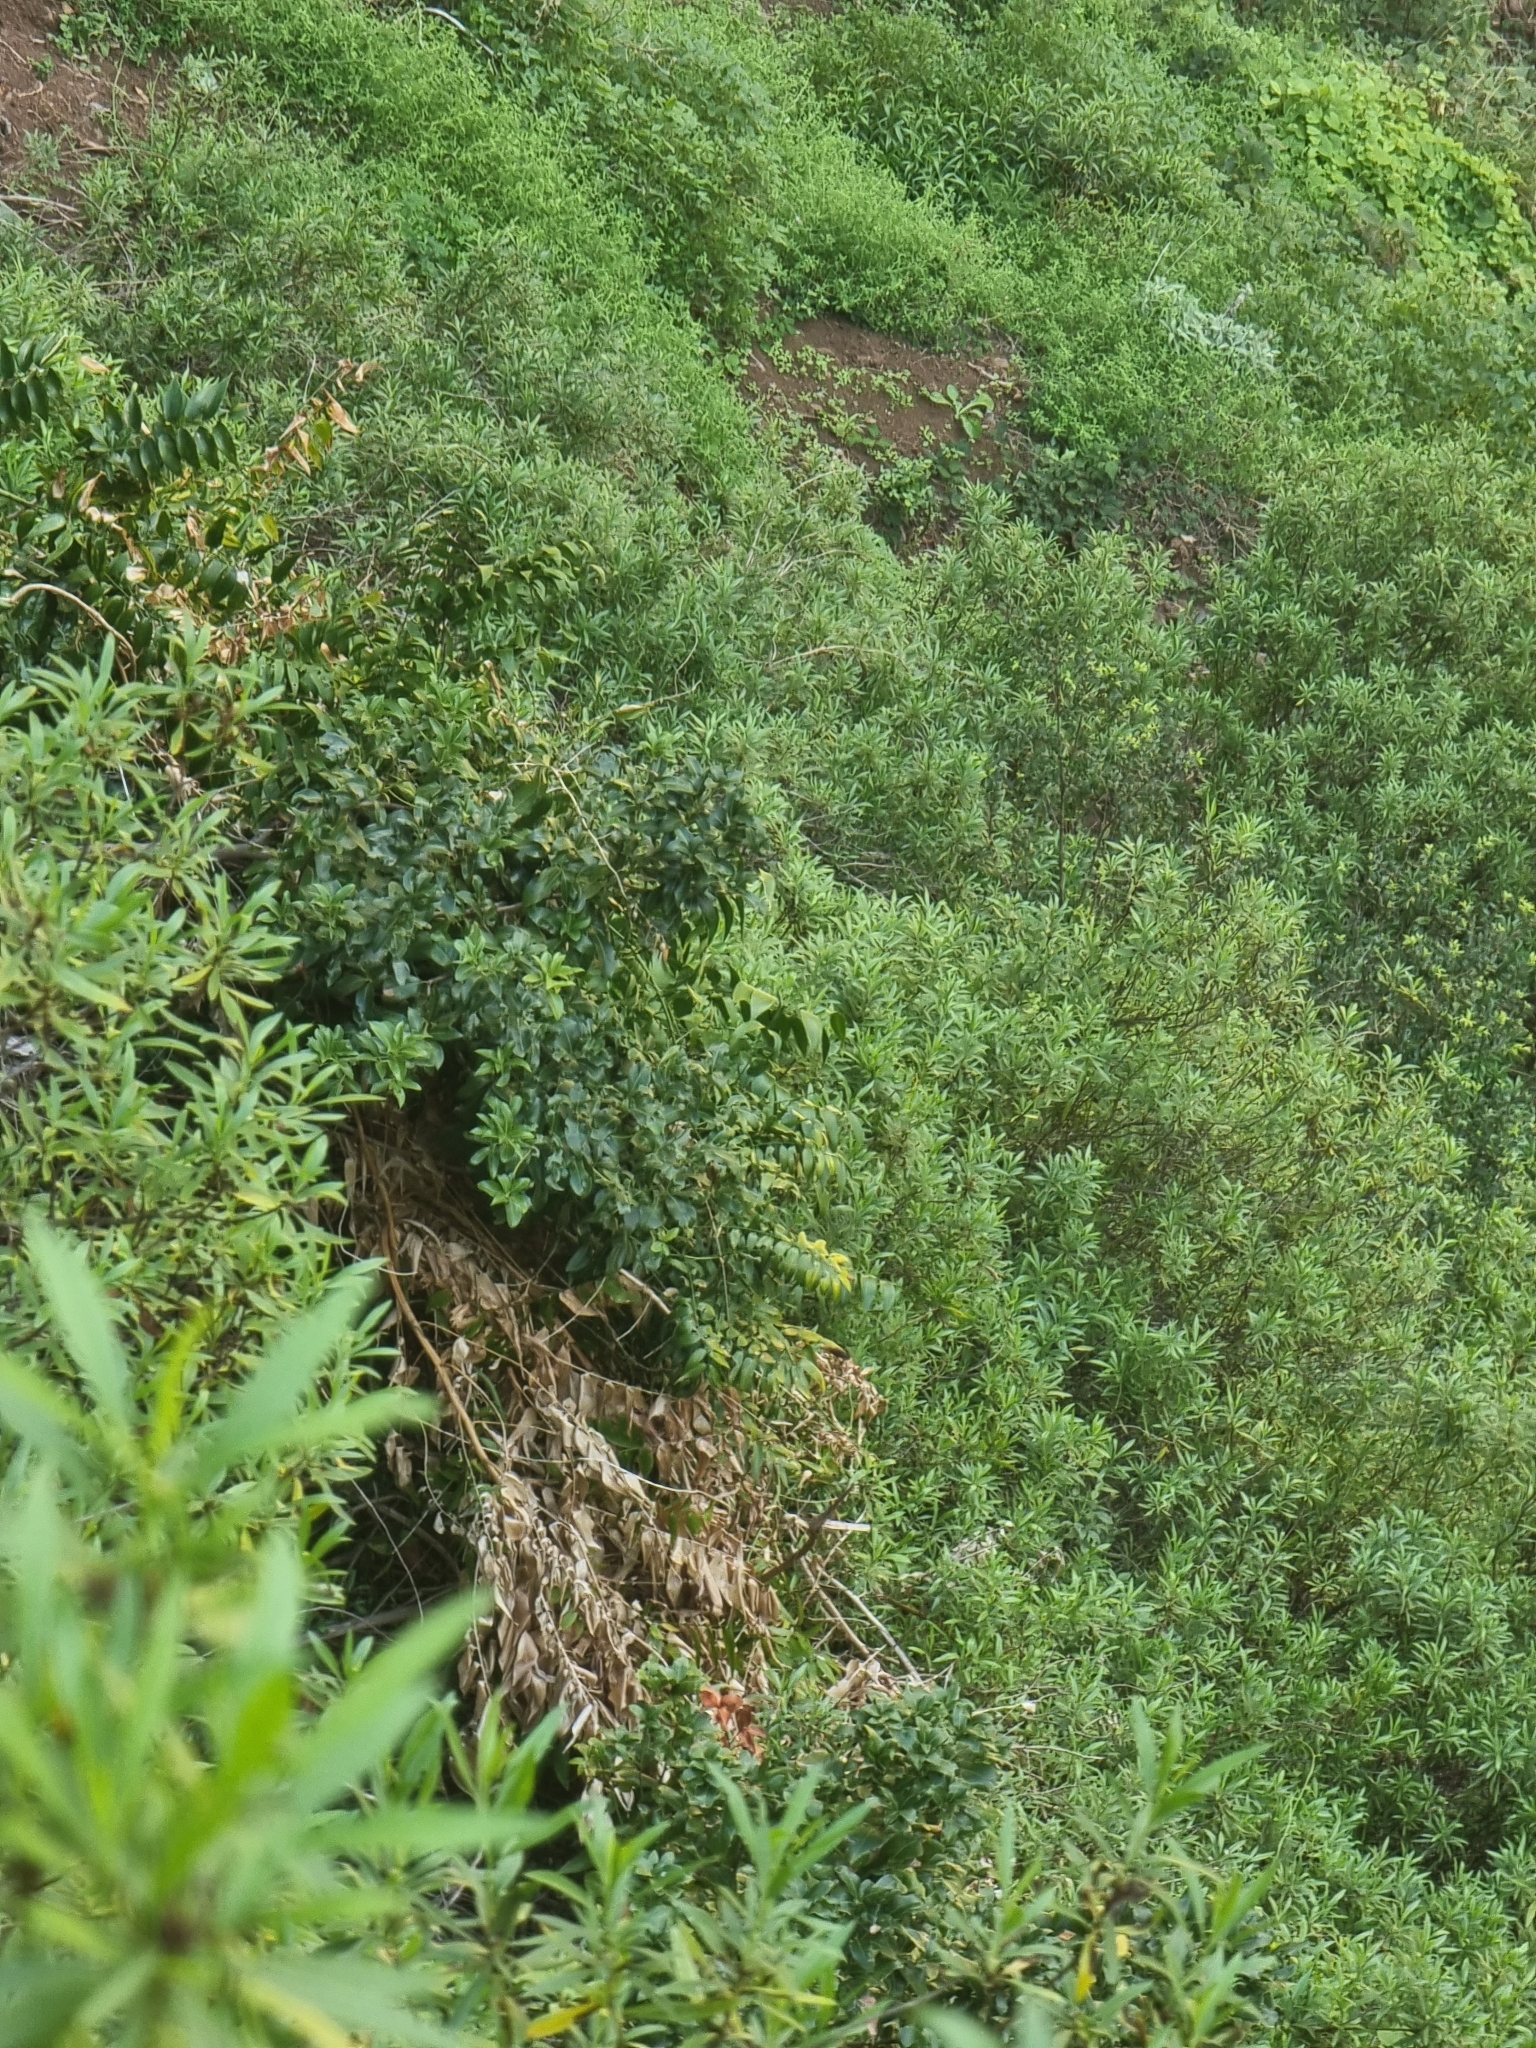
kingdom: Plantae
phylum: Tracheophyta
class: Liliopsida
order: Asparagales
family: Asparagaceae
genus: Semele
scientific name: Semele androgyna
